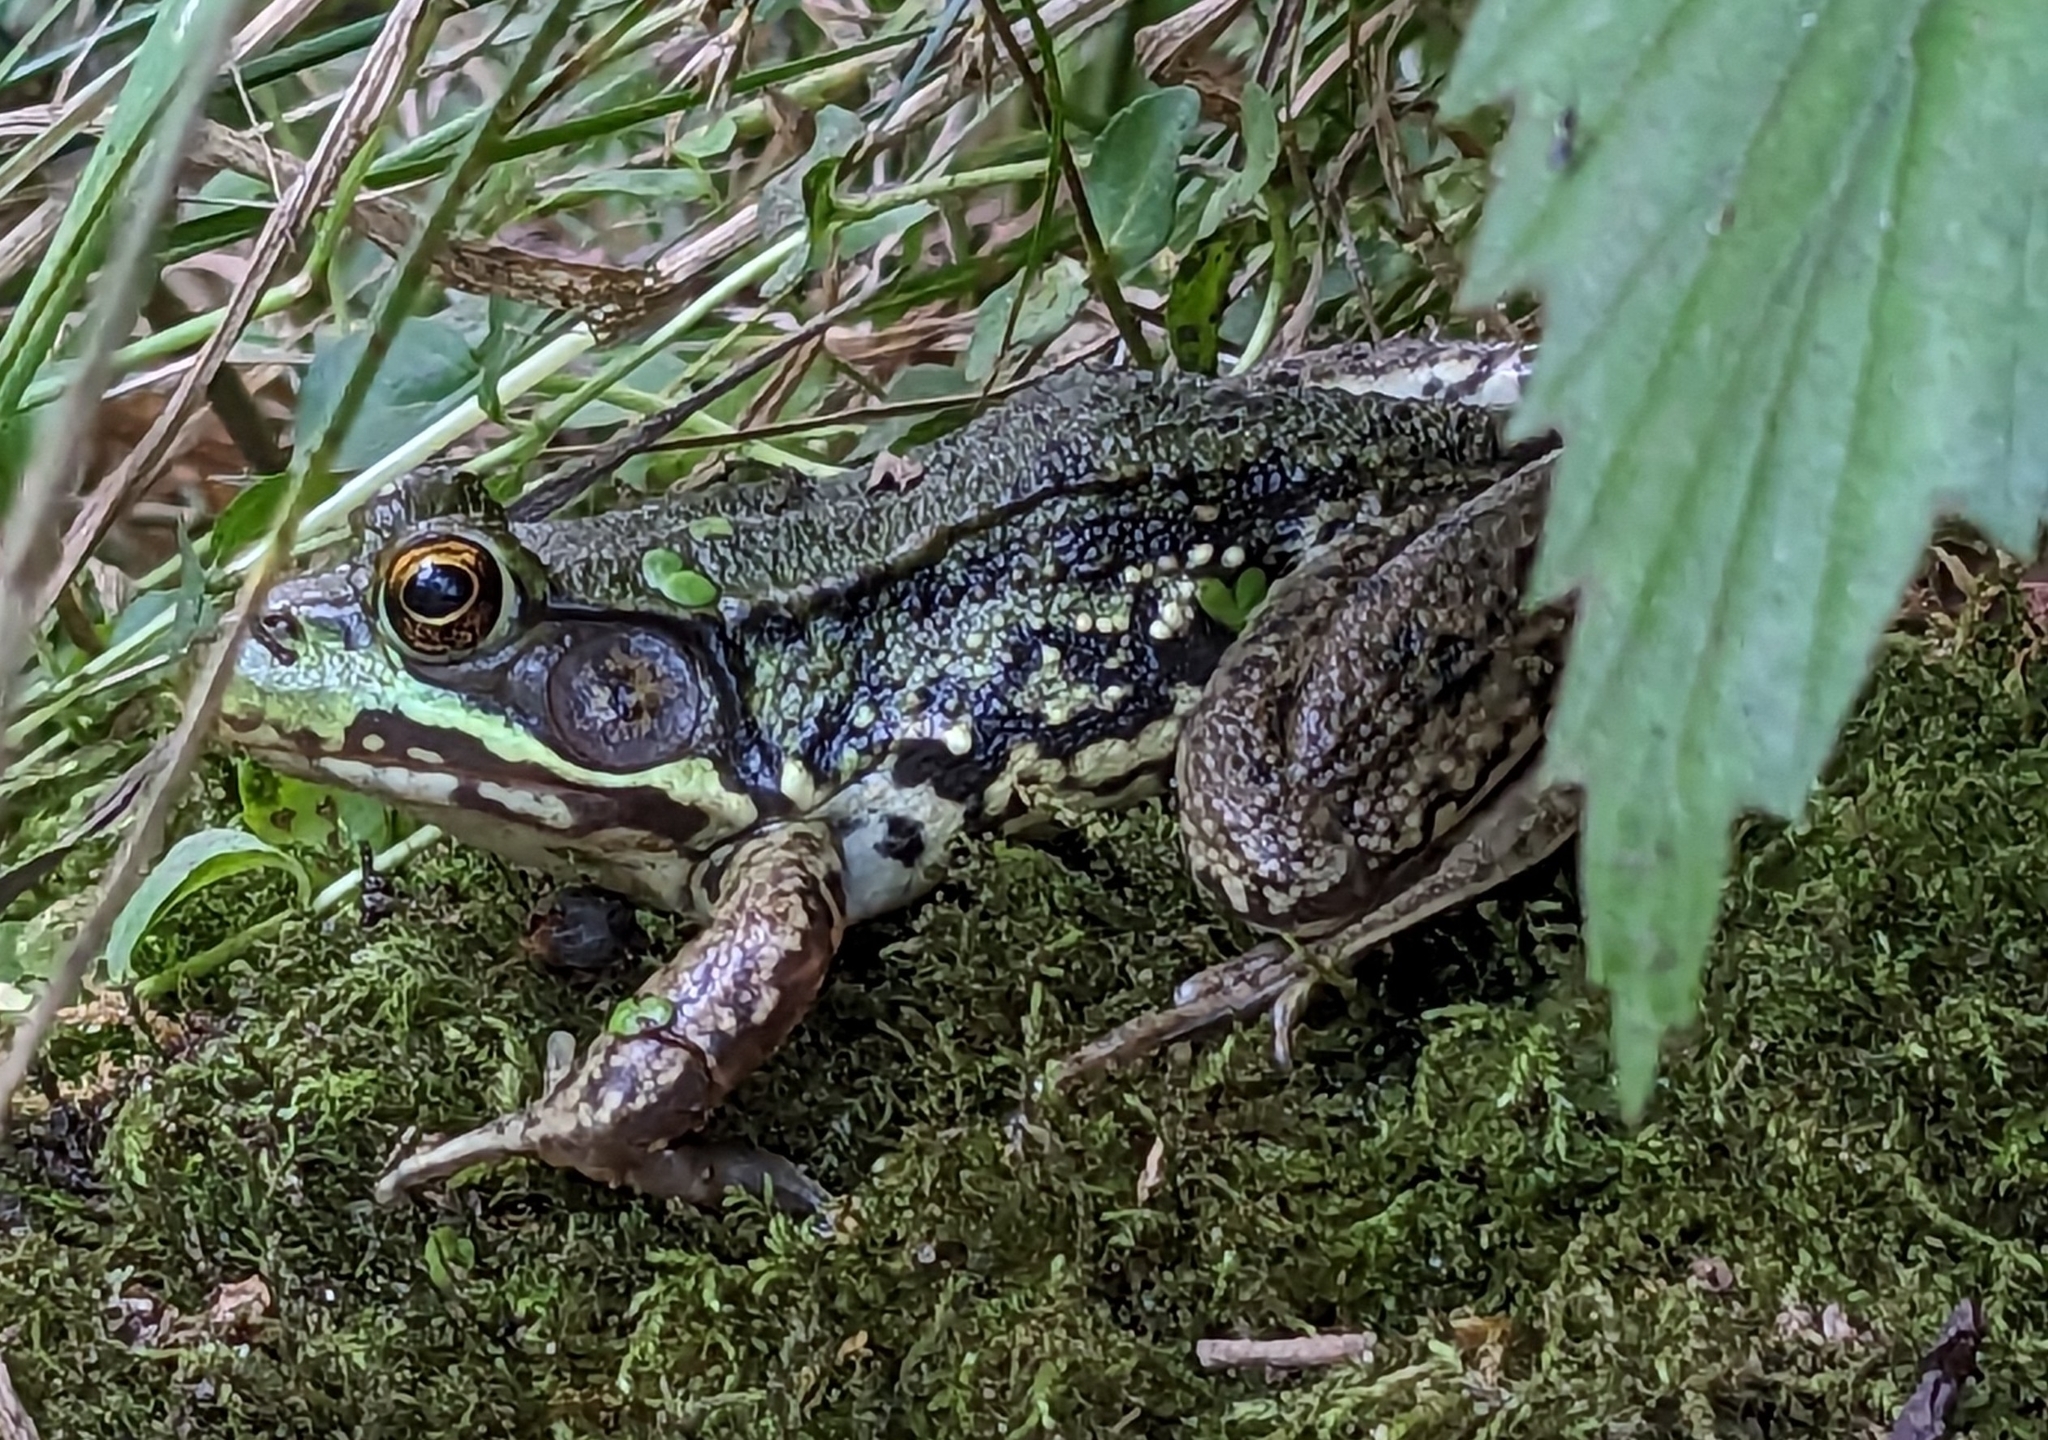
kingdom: Animalia
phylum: Chordata
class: Amphibia
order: Anura
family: Ranidae
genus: Lithobates
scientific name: Lithobates clamitans
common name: Green frog
